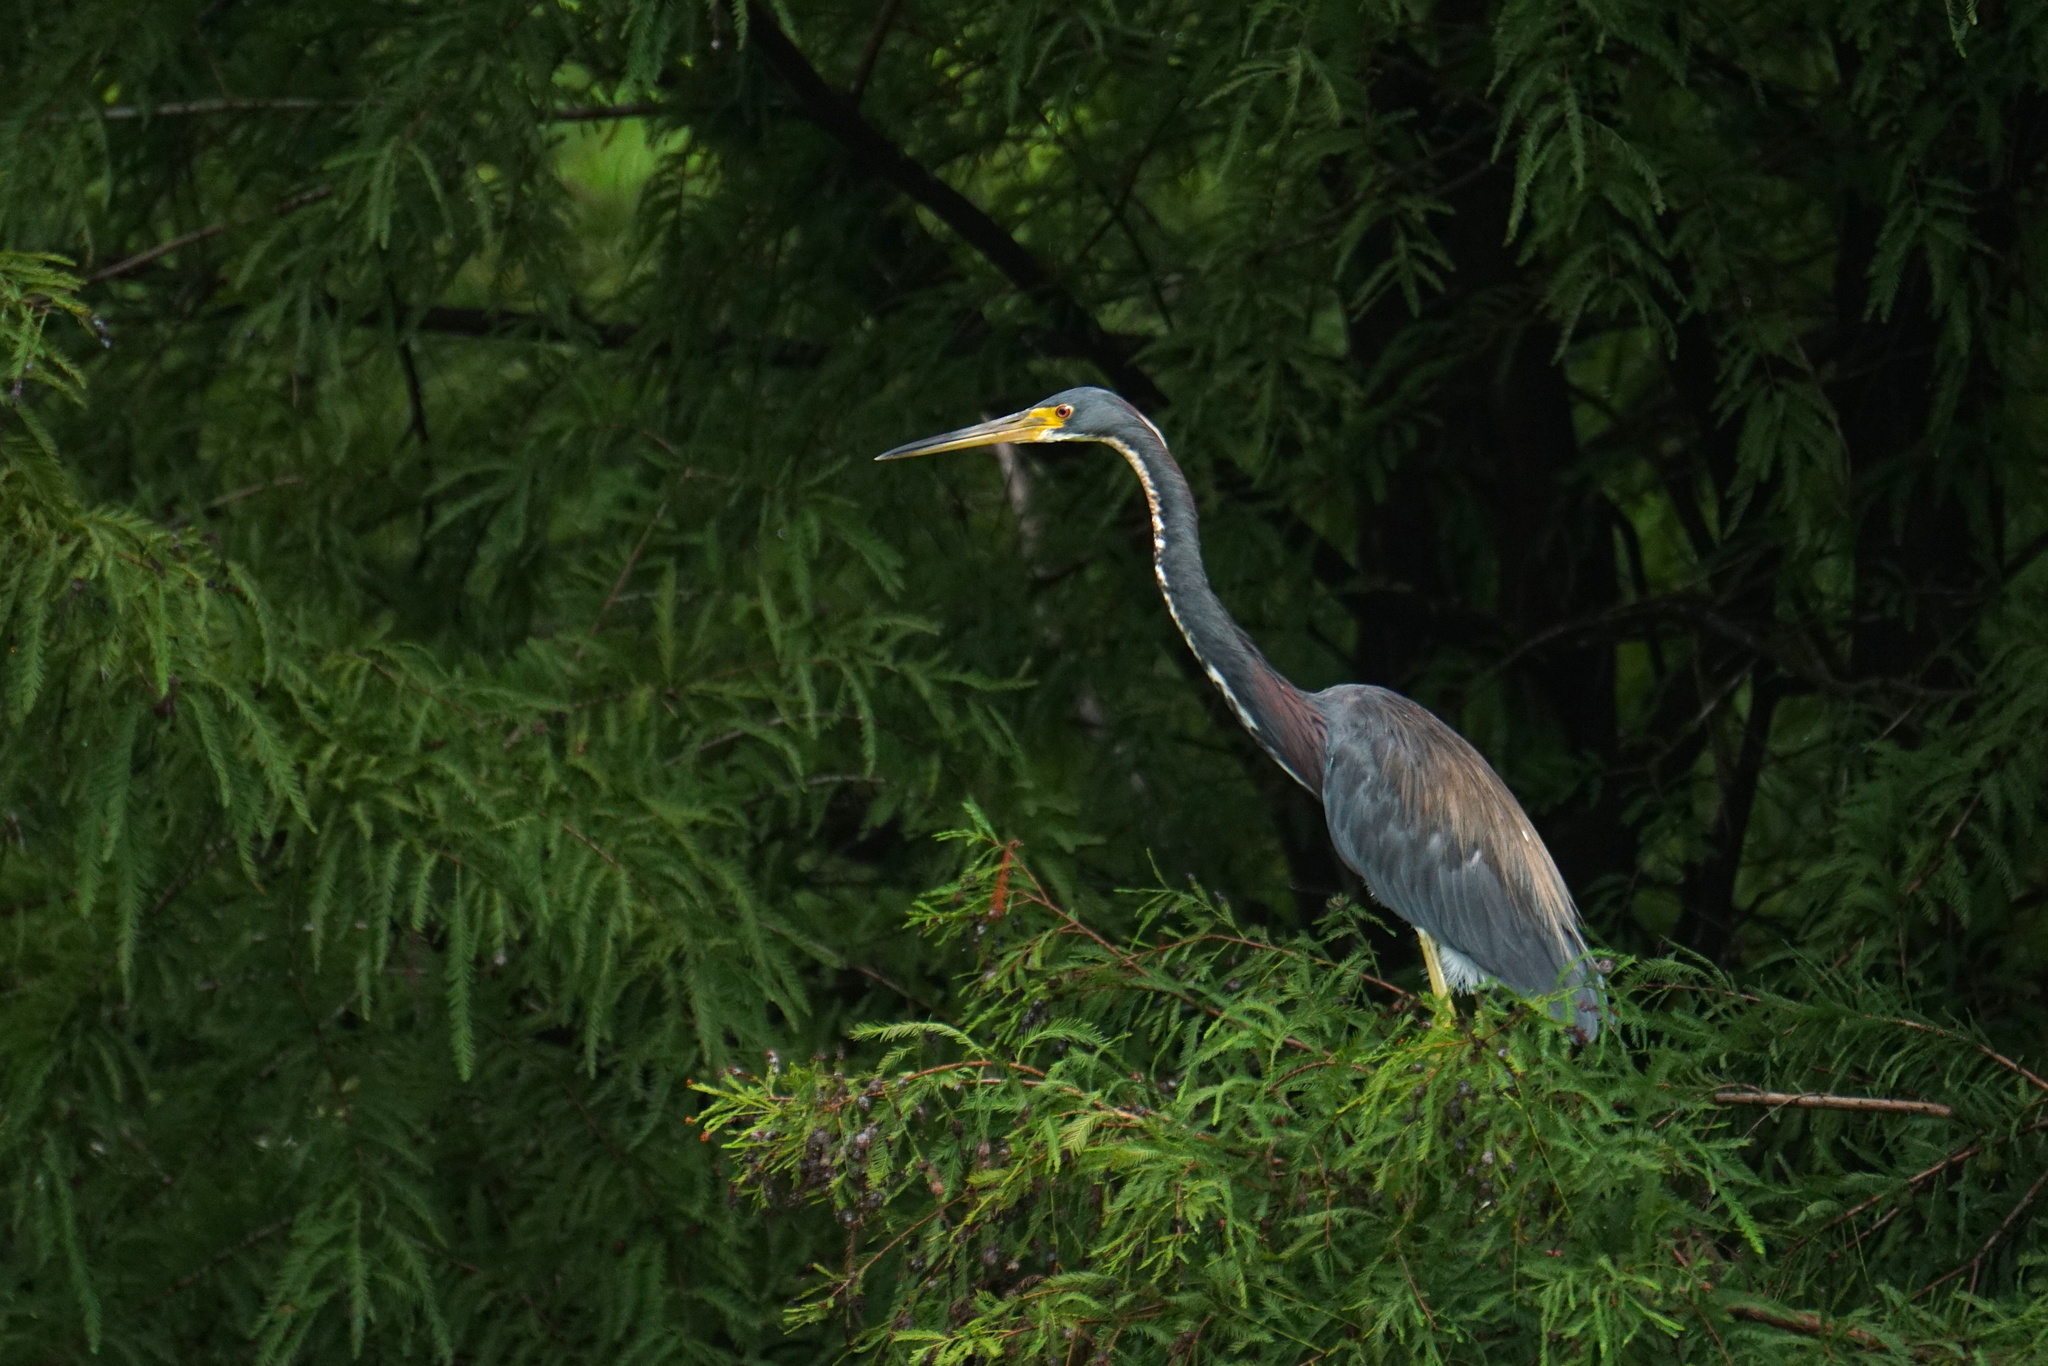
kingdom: Animalia
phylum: Chordata
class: Aves
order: Pelecaniformes
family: Ardeidae
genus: Egretta
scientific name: Egretta tricolor
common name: Tricolored heron
